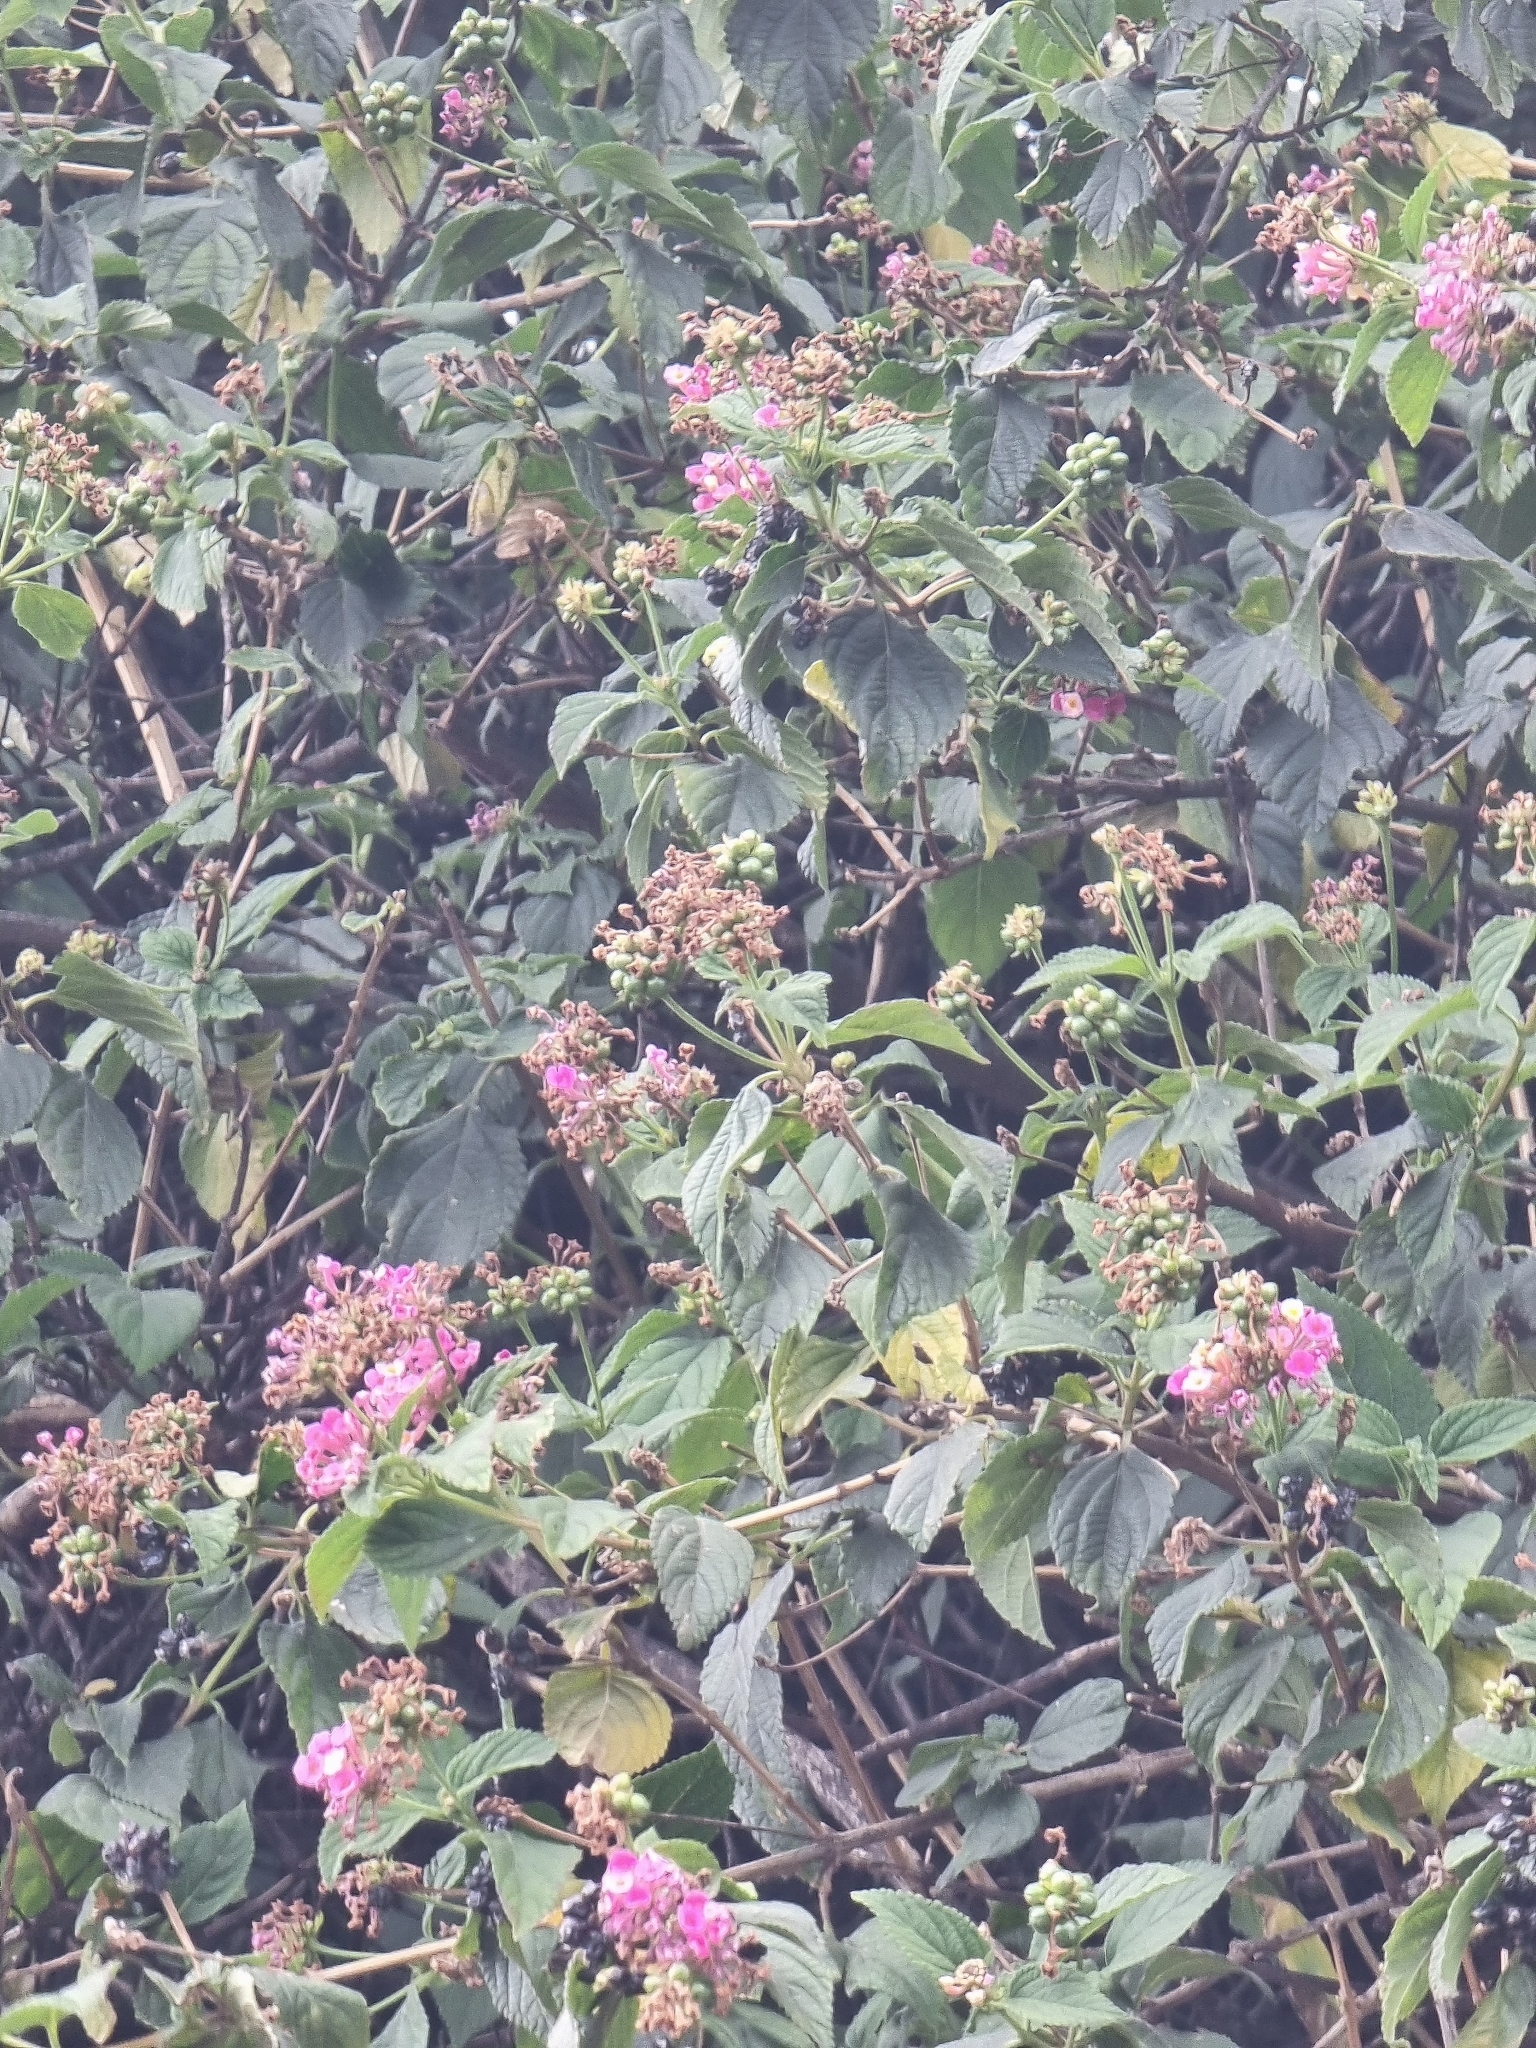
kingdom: Plantae
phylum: Tracheophyta
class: Magnoliopsida
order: Lamiales
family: Verbenaceae
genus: Lantana
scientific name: Lantana camara
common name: Lantana
